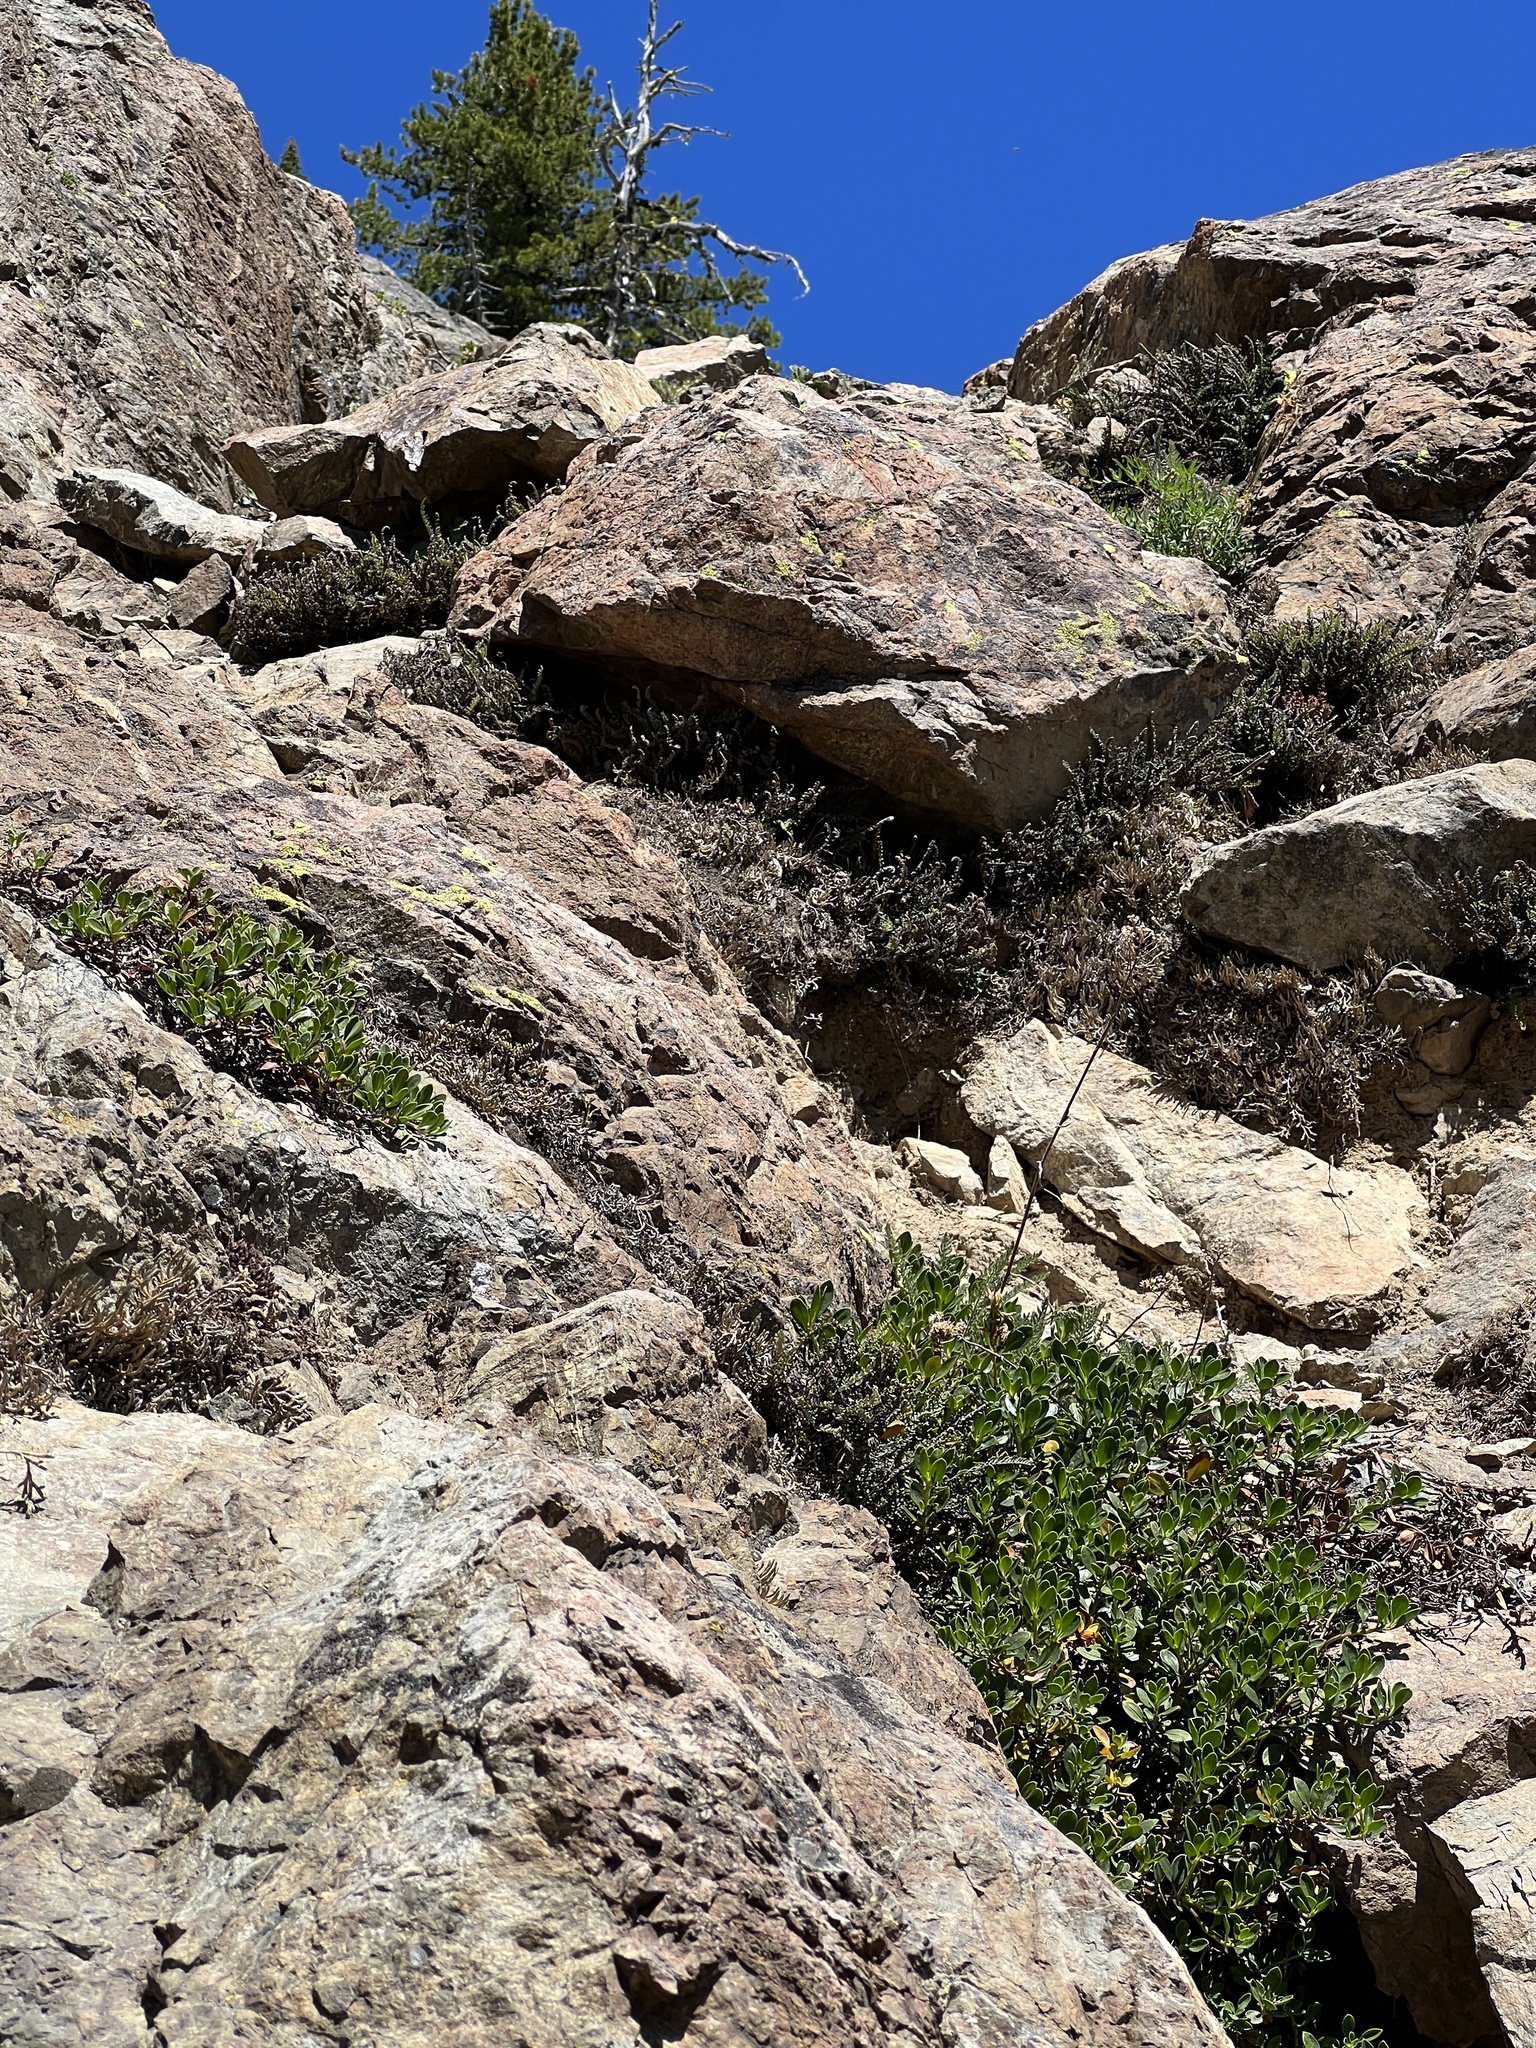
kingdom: Plantae
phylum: Tracheophyta
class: Polypodiopsida
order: Polypodiales
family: Pteridaceae
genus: Myriopteris
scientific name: Myriopteris gracillima
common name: Lace fern
